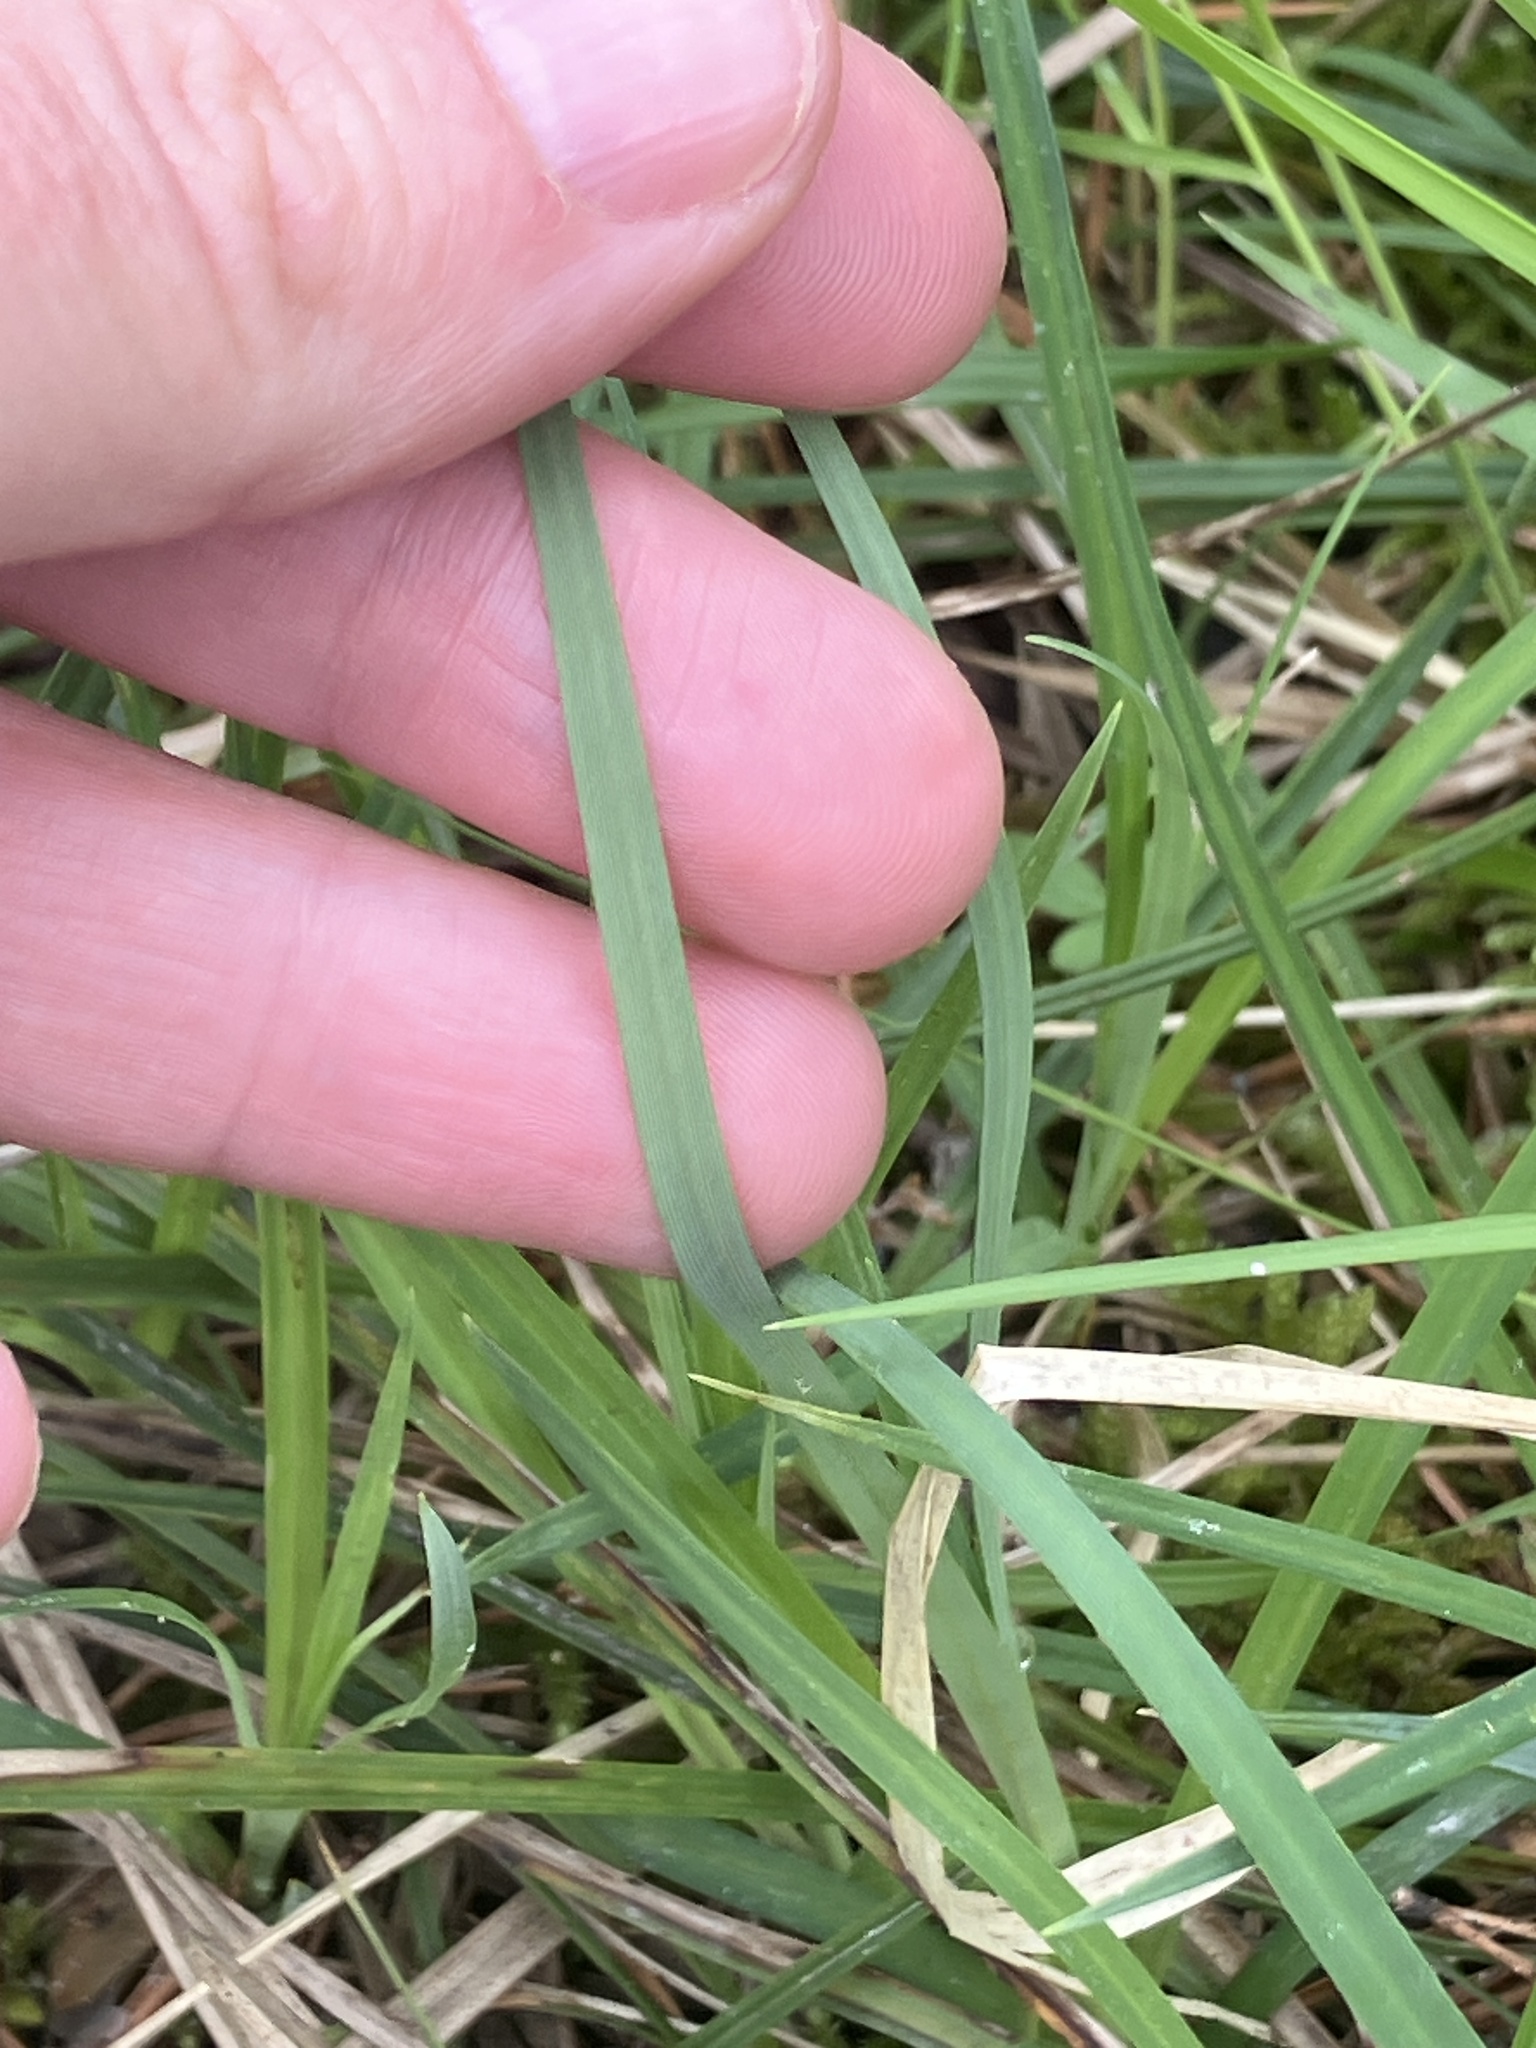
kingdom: Plantae
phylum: Tracheophyta
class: Liliopsida
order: Poales
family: Cyperaceae
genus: Carex
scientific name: Carex flacca
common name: Glaucous sedge
